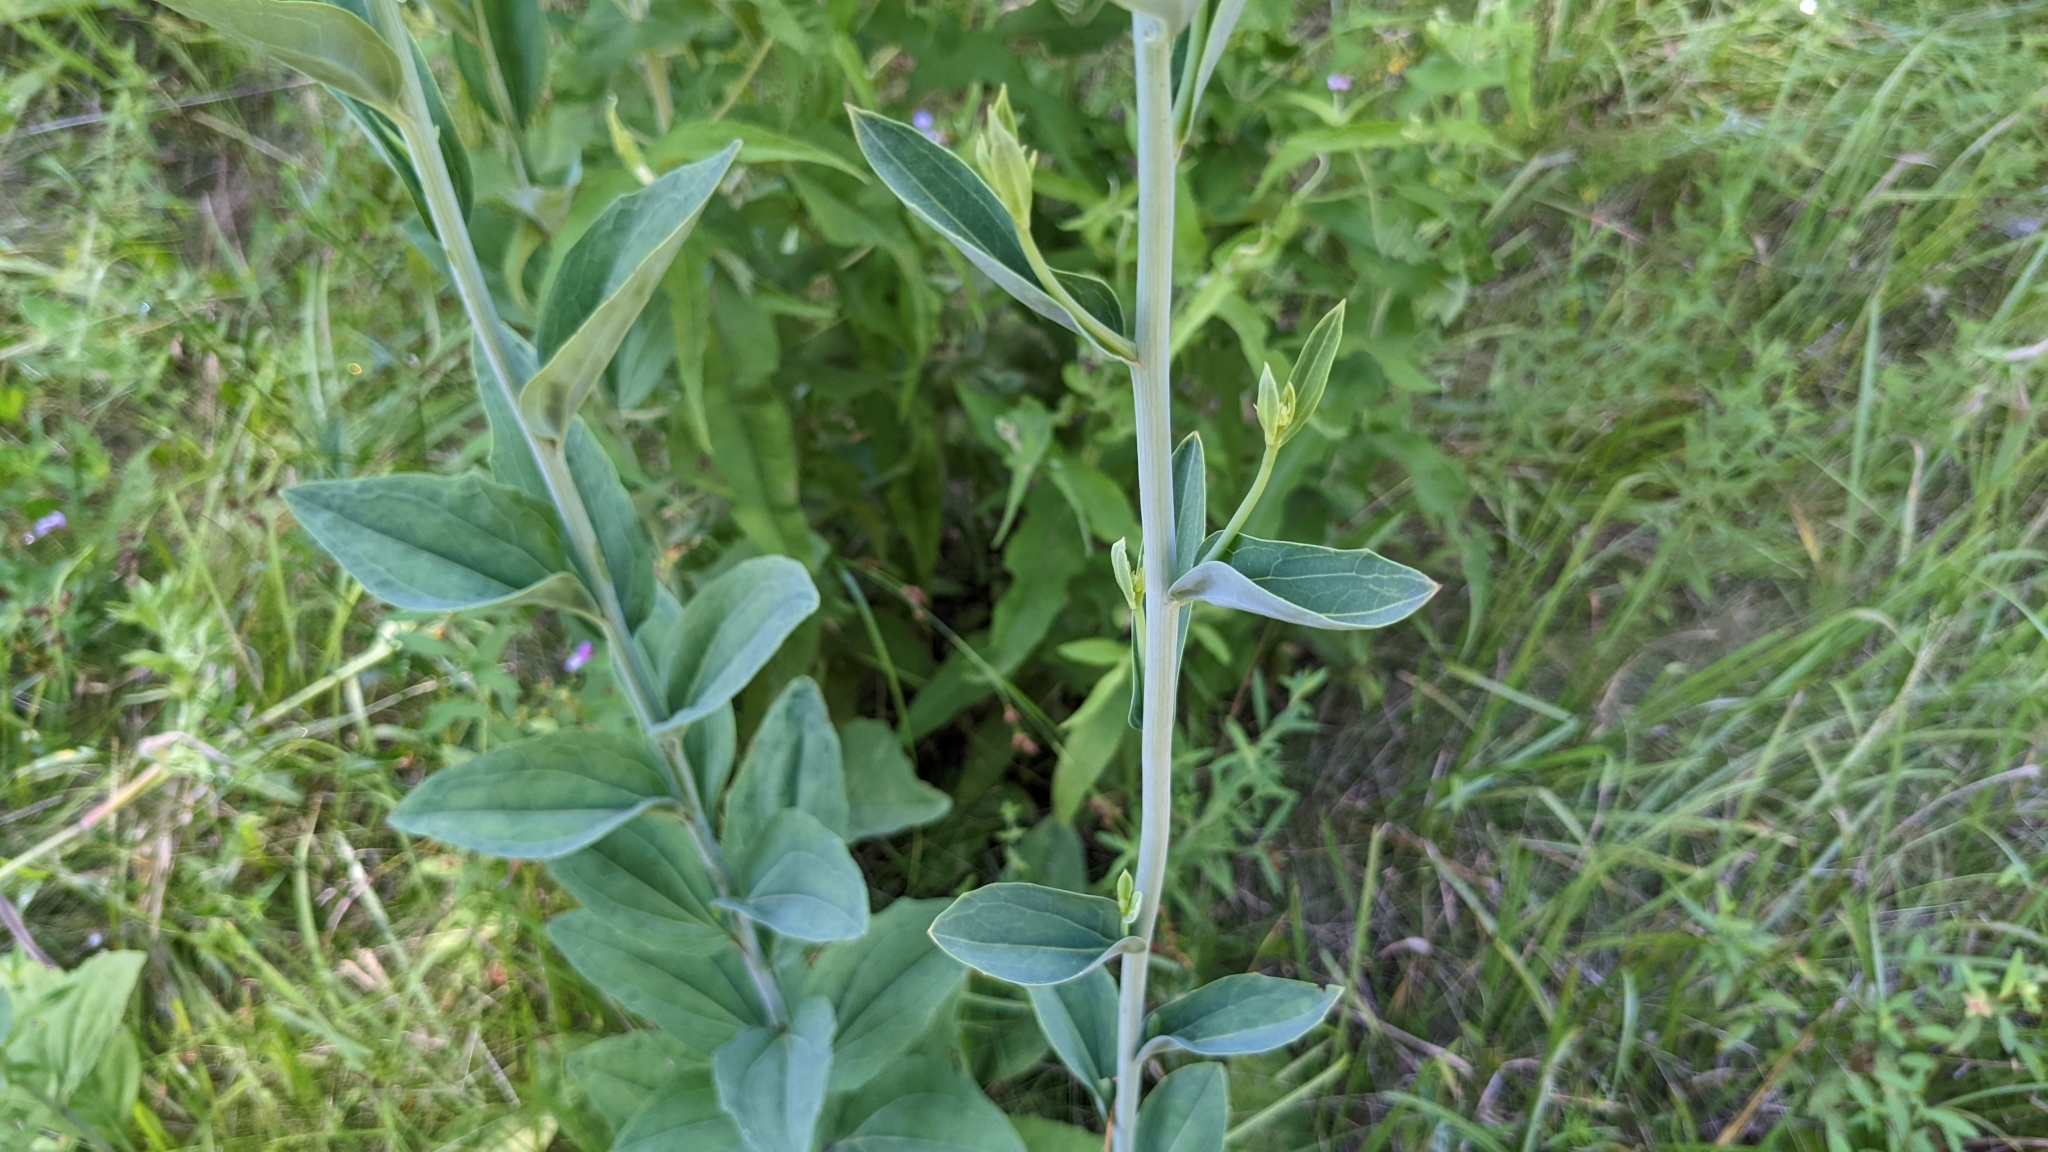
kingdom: Plantae
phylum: Tracheophyta
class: Magnoliopsida
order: Asterales
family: Asteraceae
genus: Arnoglossum
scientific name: Arnoglossum ovatum
